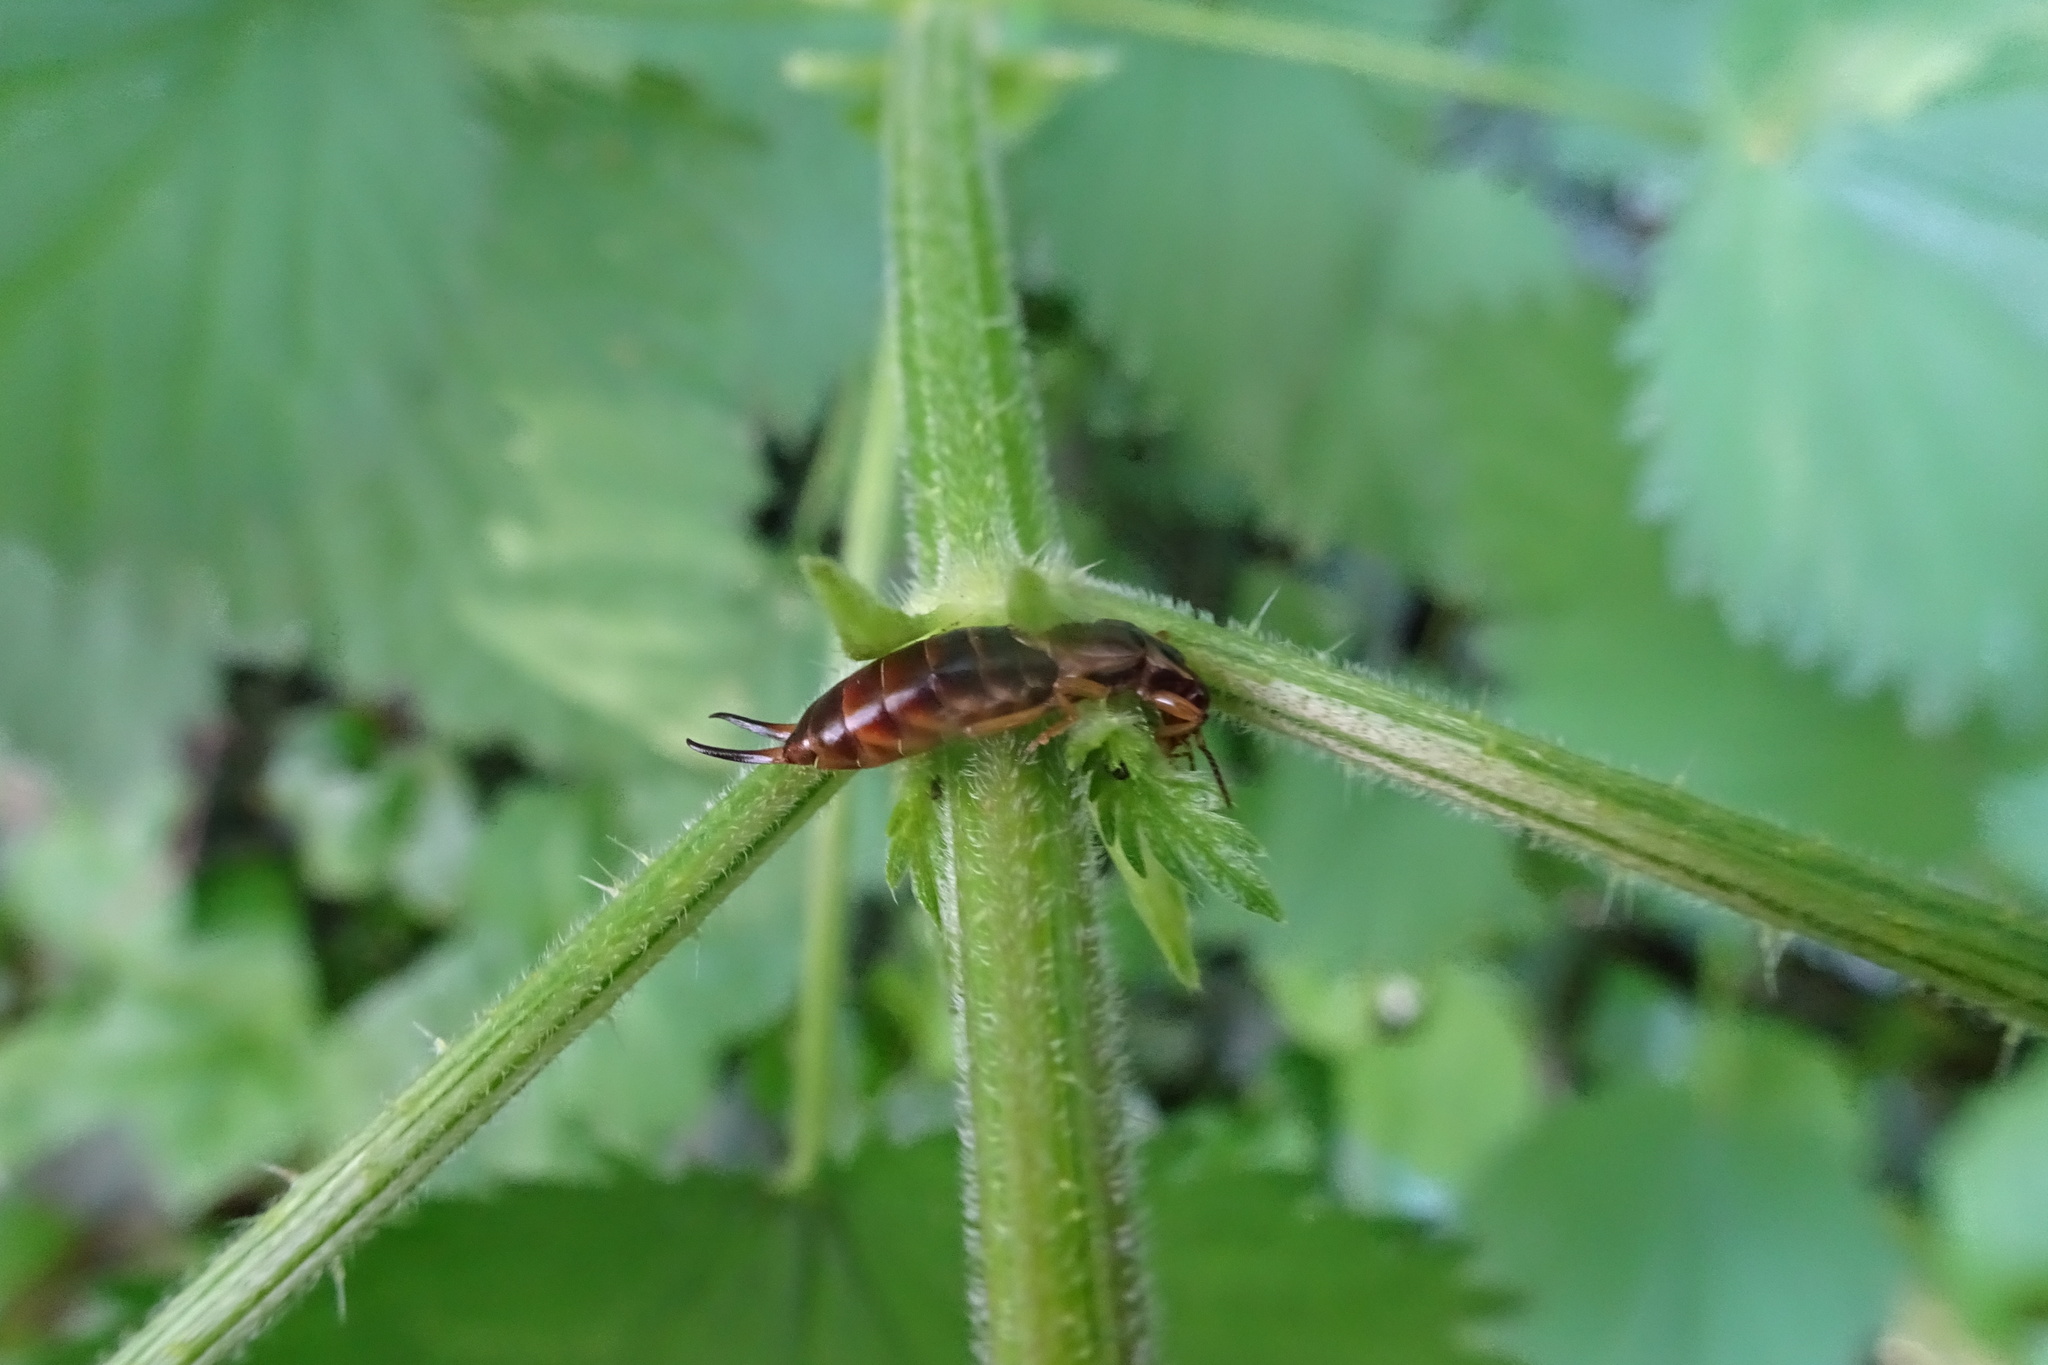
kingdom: Animalia
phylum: Arthropoda
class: Insecta
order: Dermaptera
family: Forficulidae
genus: Forficula
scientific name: Forficula
